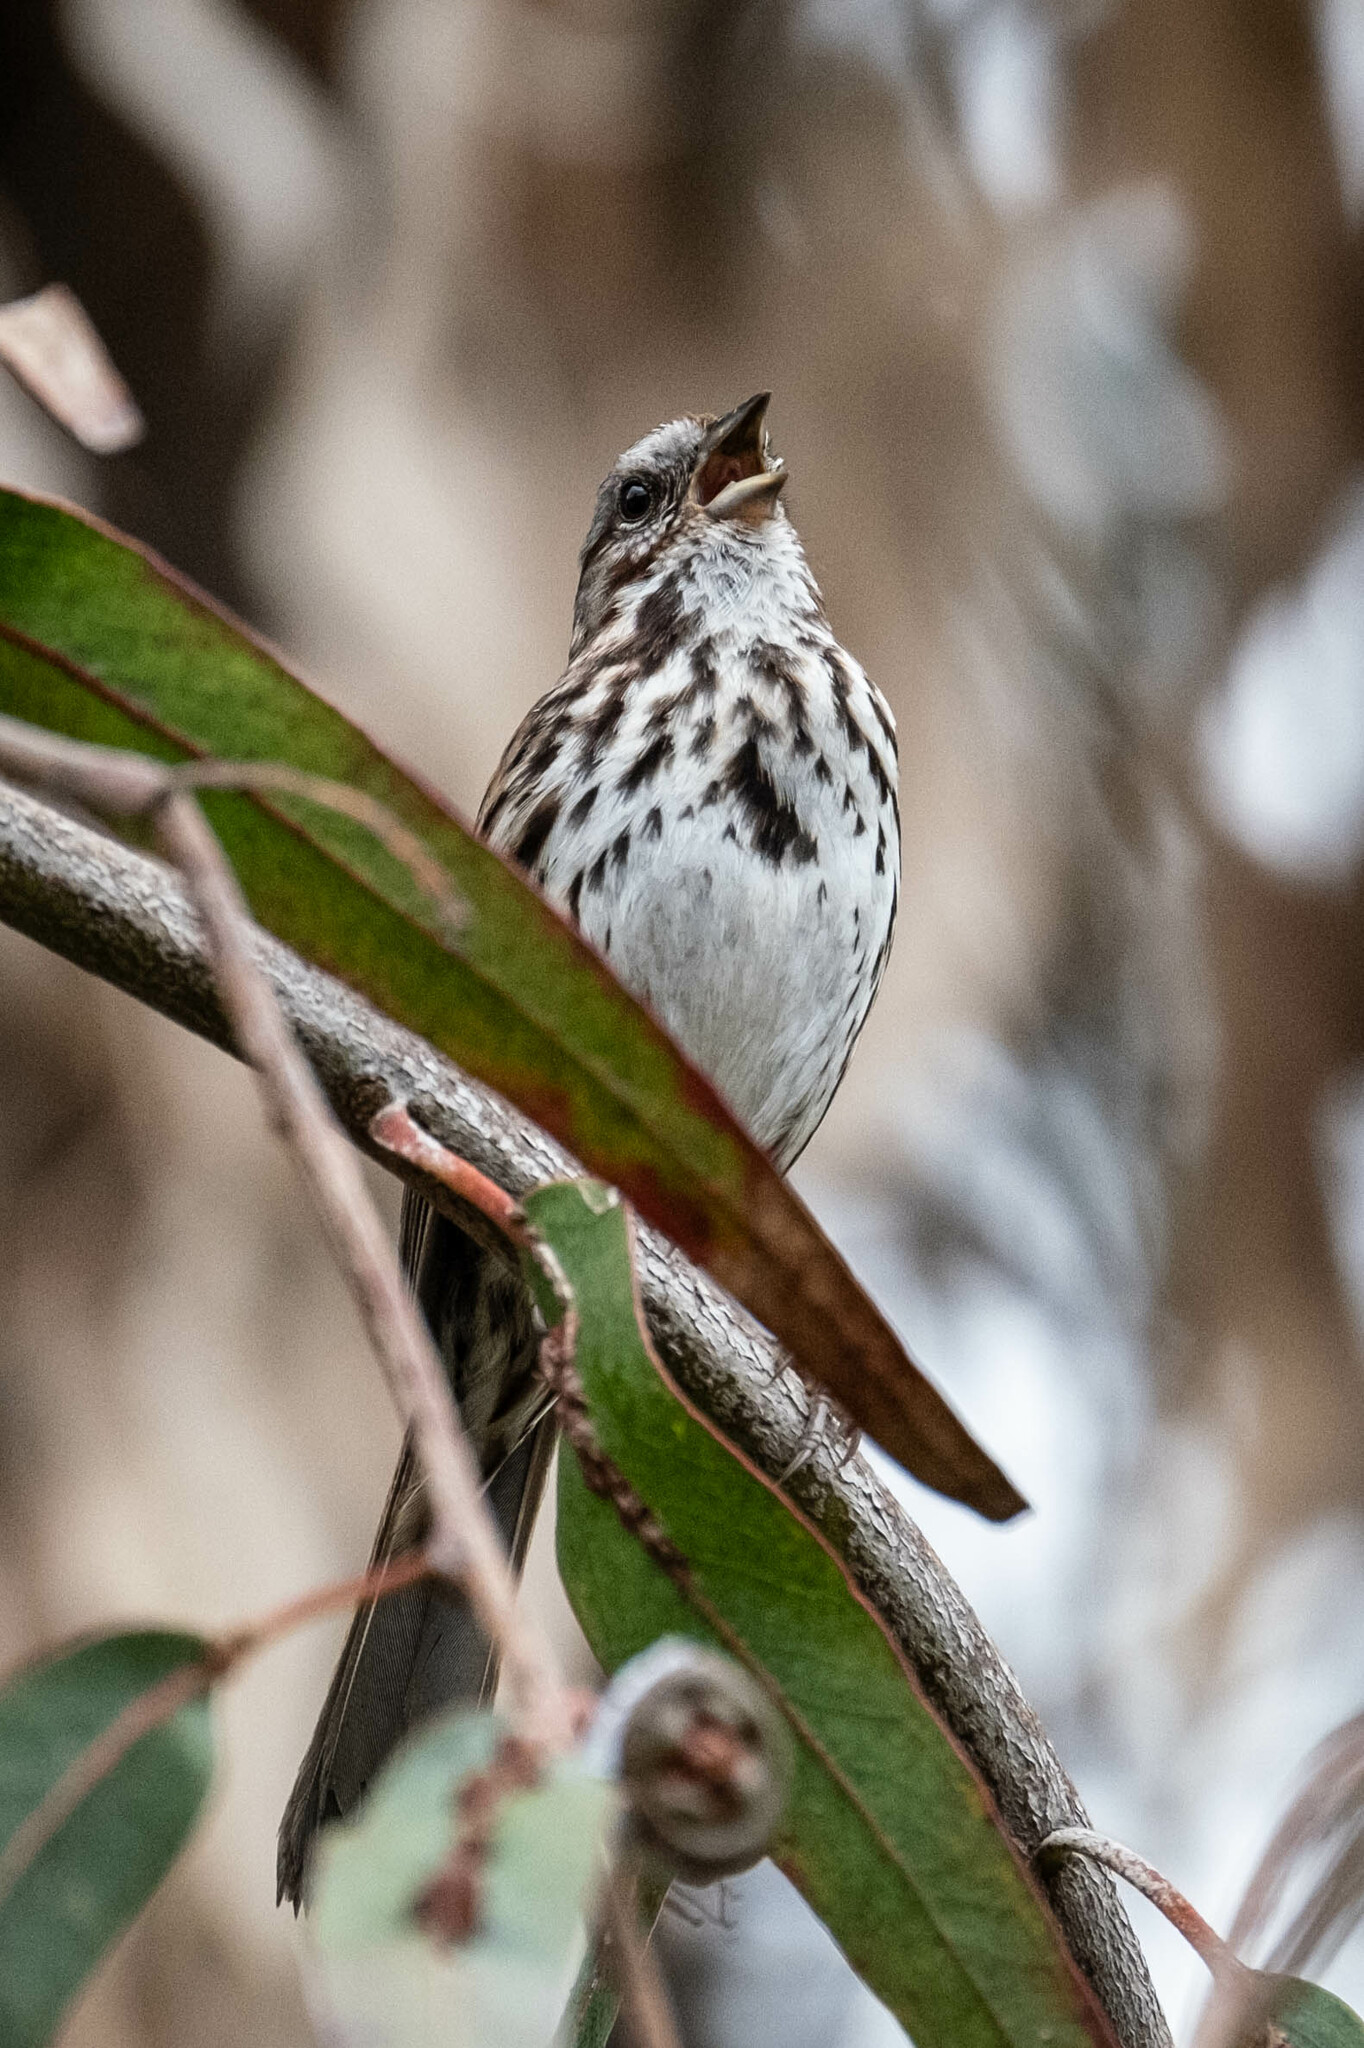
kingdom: Animalia
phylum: Chordata
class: Aves
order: Passeriformes
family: Passerellidae
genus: Melospiza
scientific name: Melospiza melodia
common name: Song sparrow
